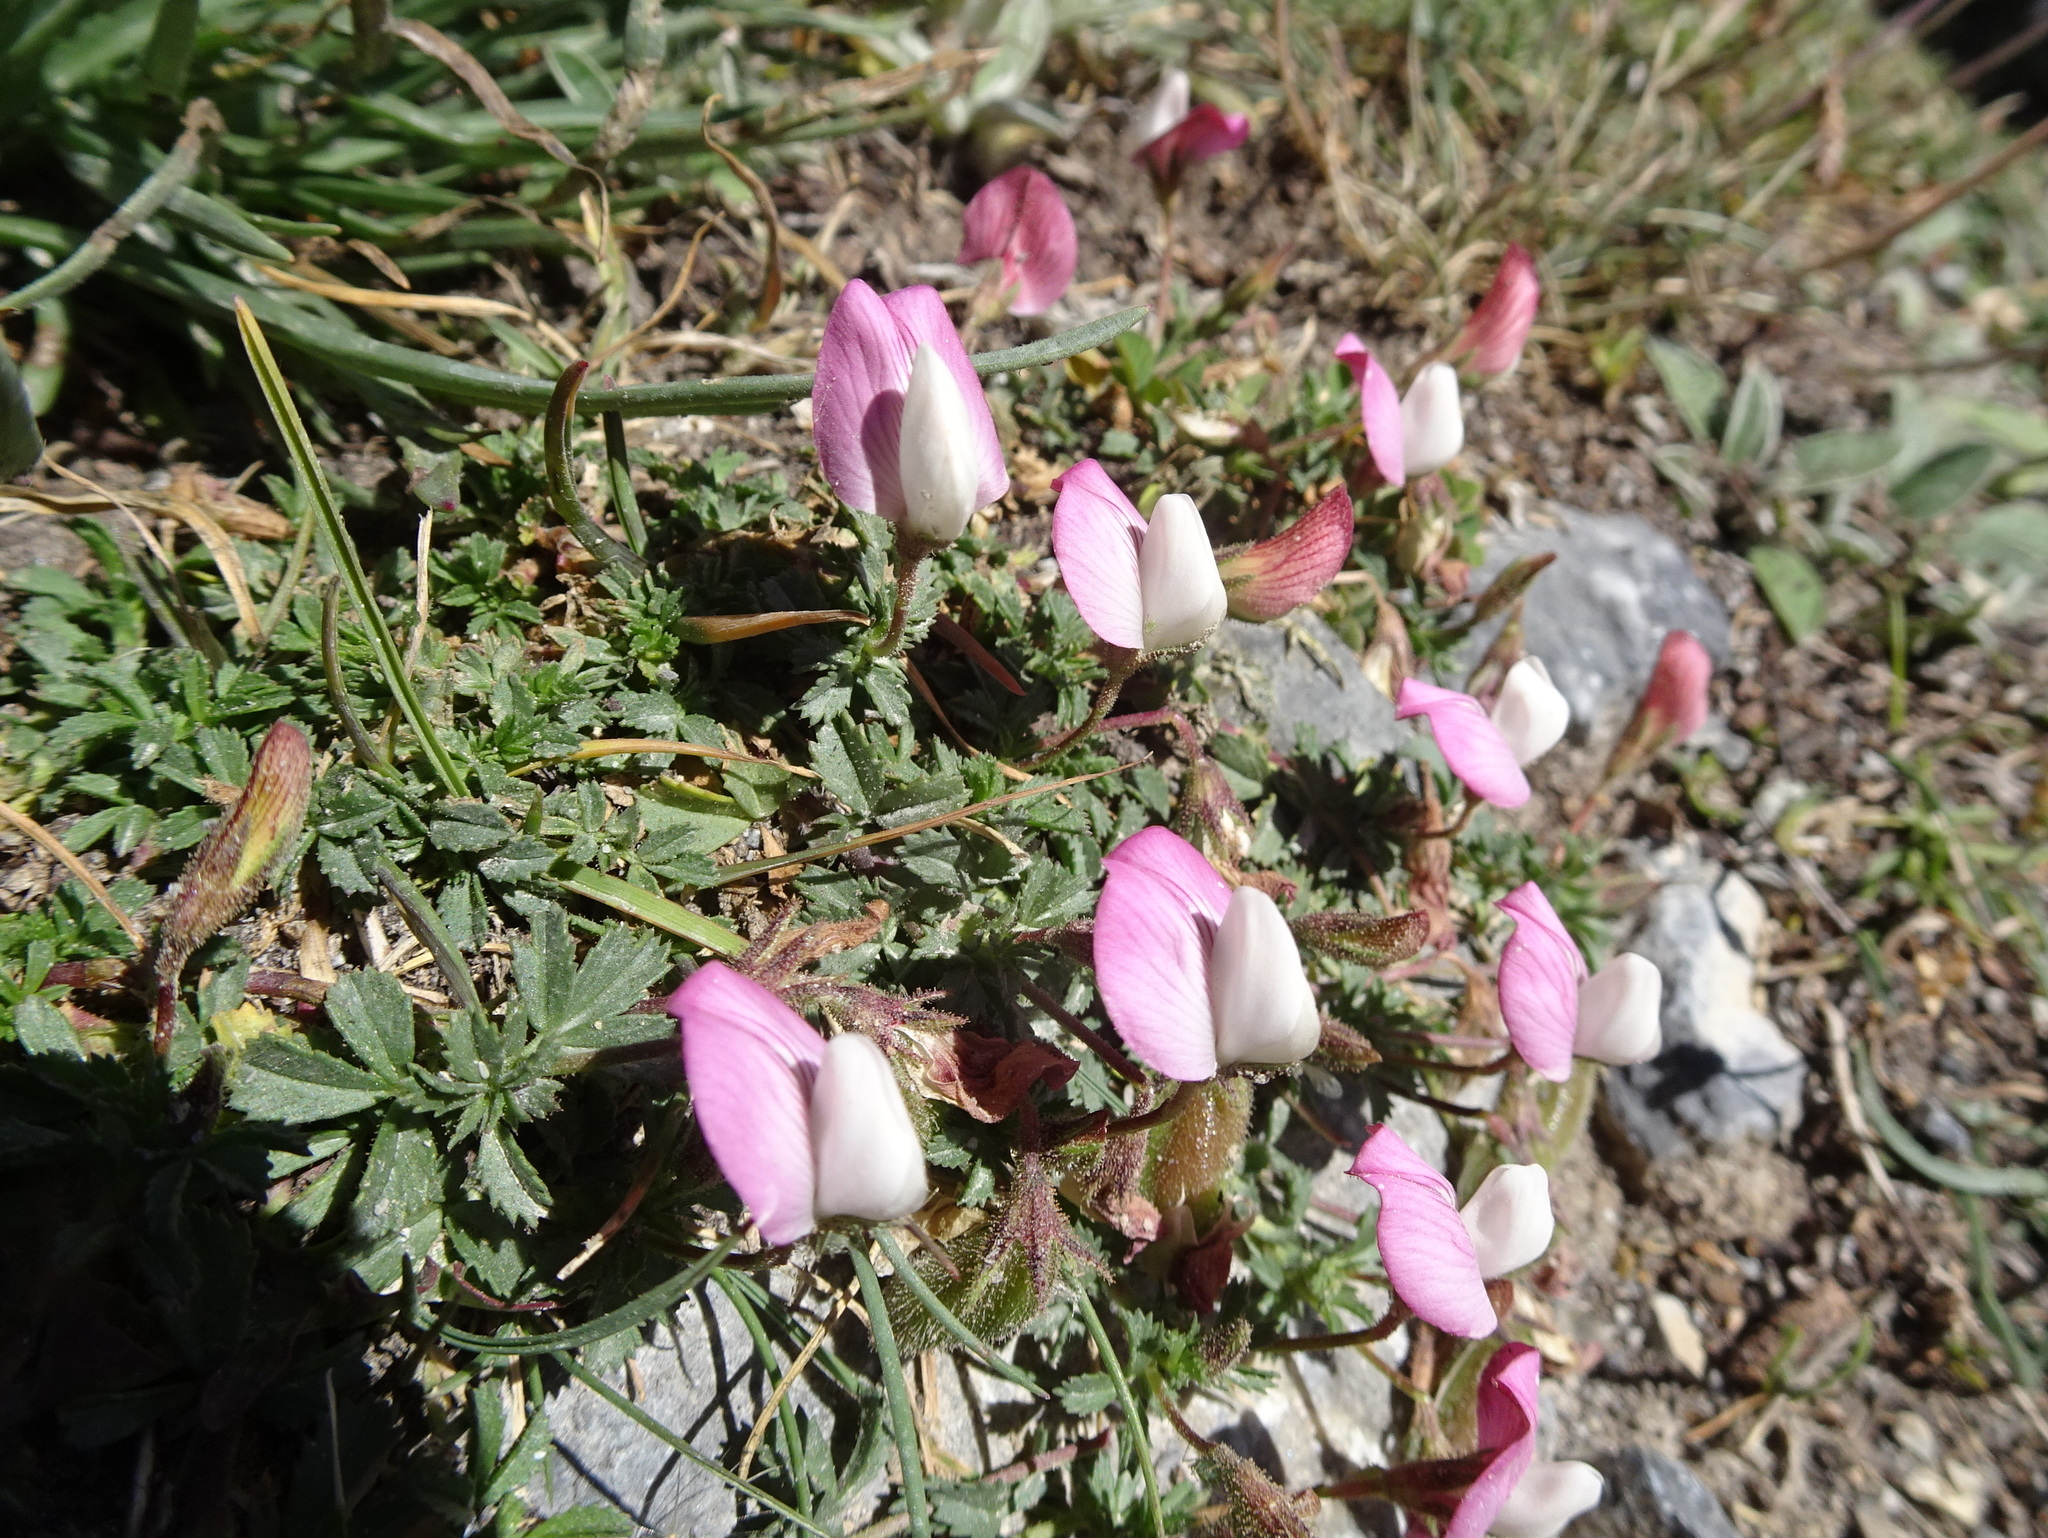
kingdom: Plantae
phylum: Tracheophyta
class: Magnoliopsida
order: Fabales
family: Fabaceae
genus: Ononis
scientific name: Ononis spinosa
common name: Spiny restharrow
